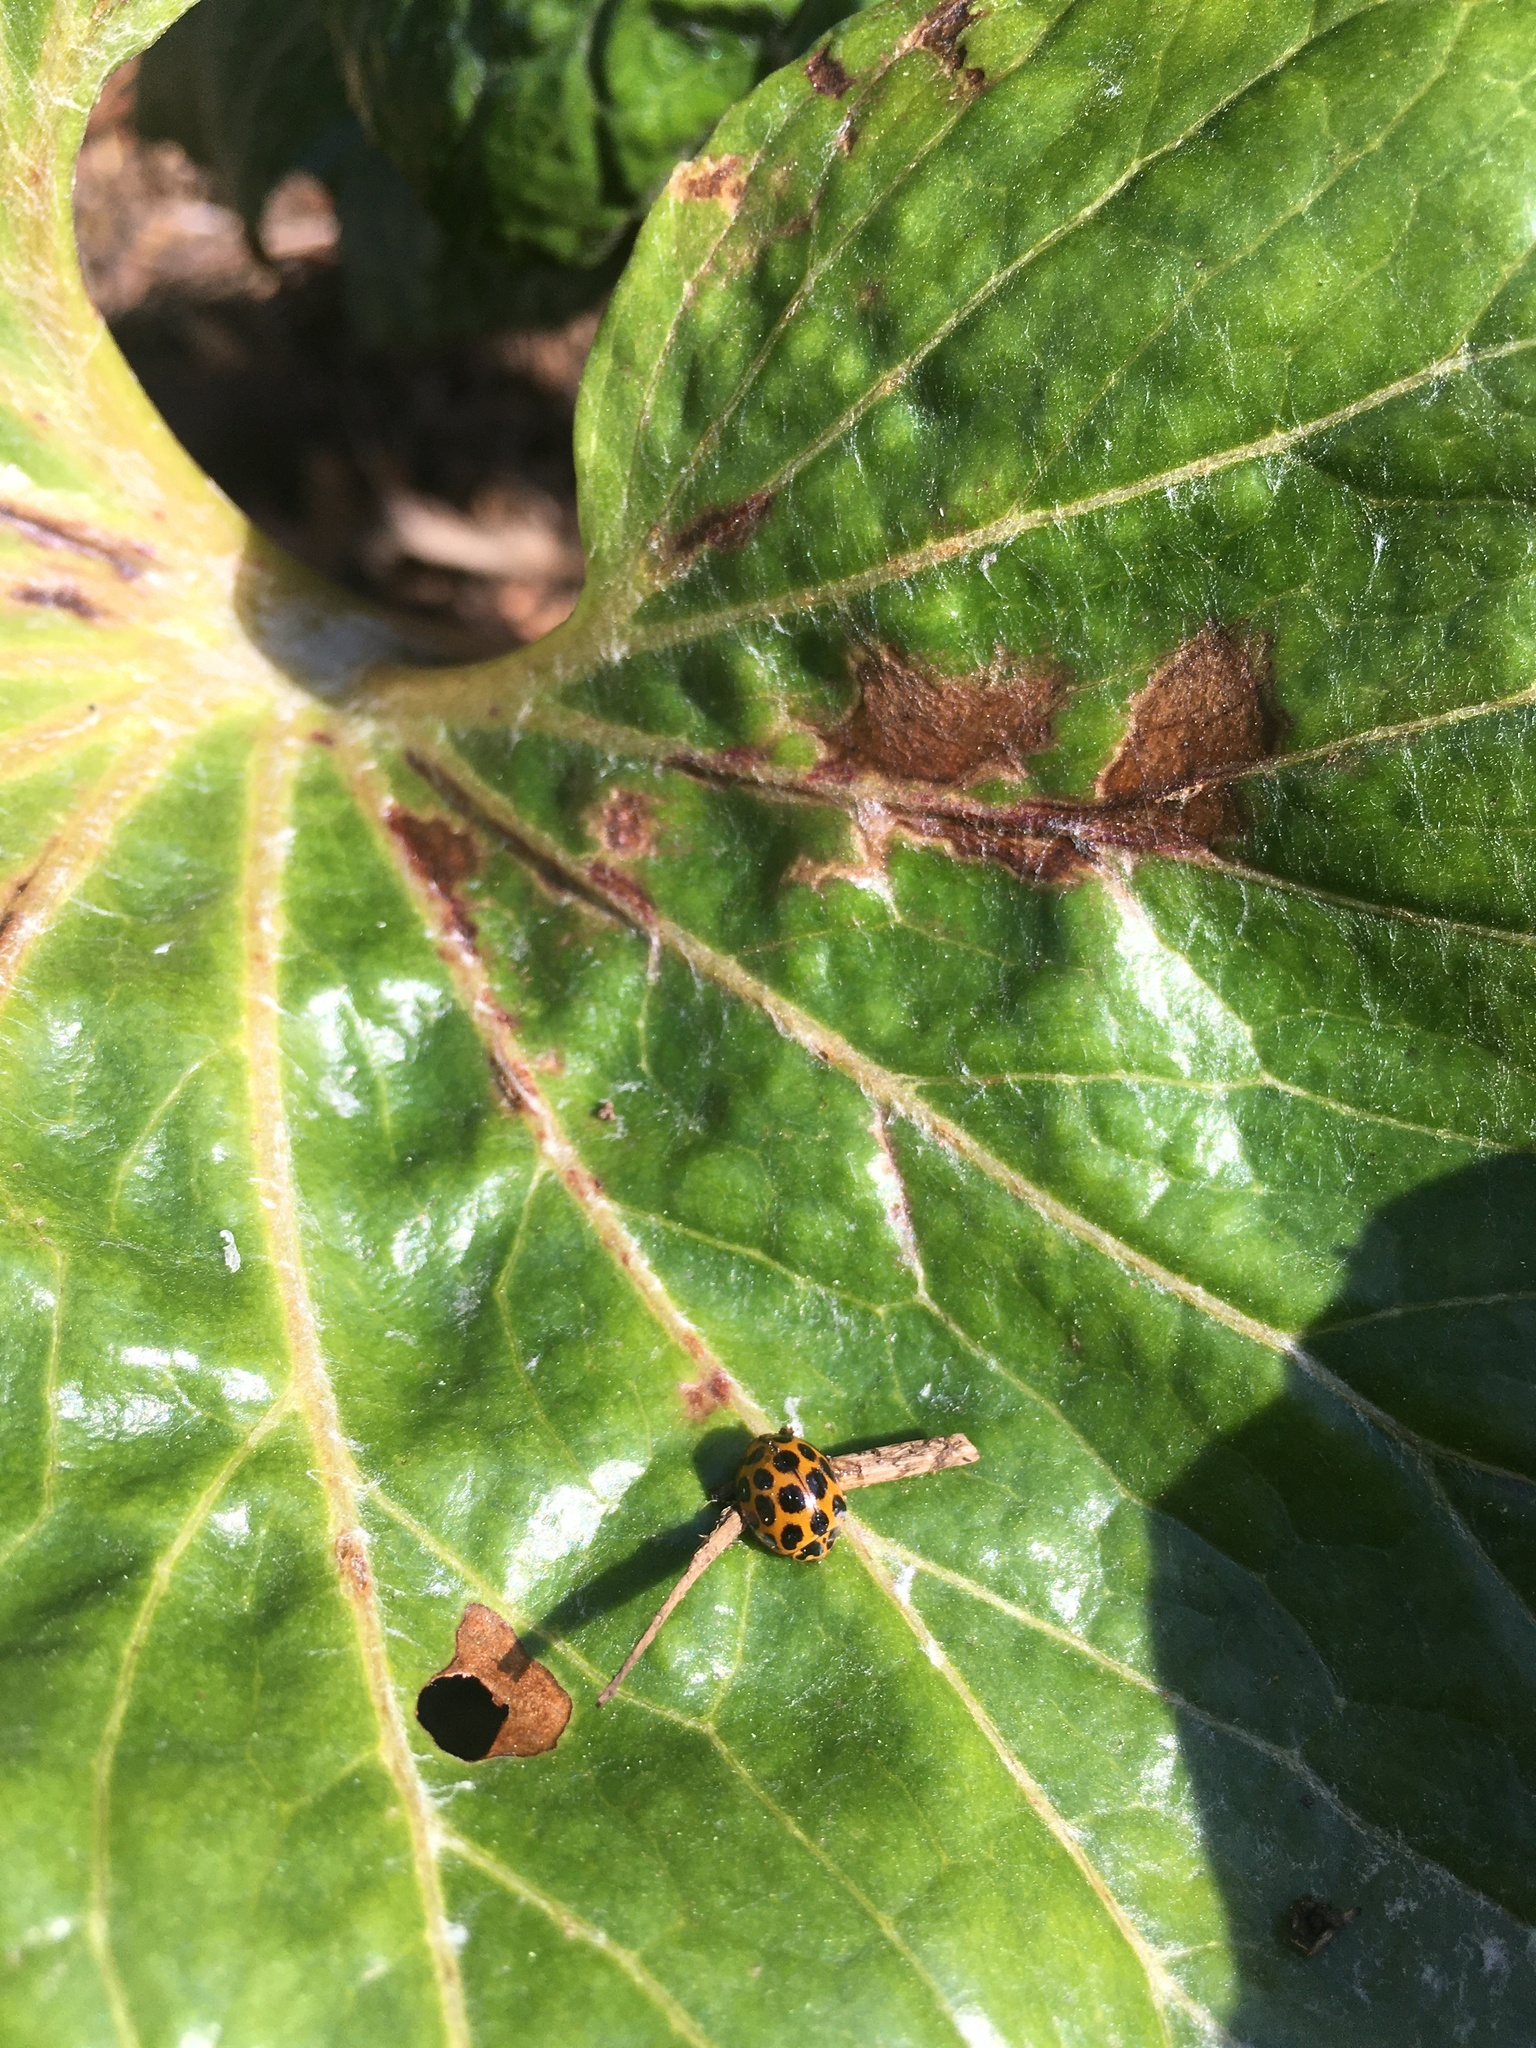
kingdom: Animalia
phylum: Arthropoda
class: Insecta
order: Coleoptera
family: Coccinellidae
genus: Harmonia
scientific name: Harmonia conformis
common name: Common spotted ladybird beetle
